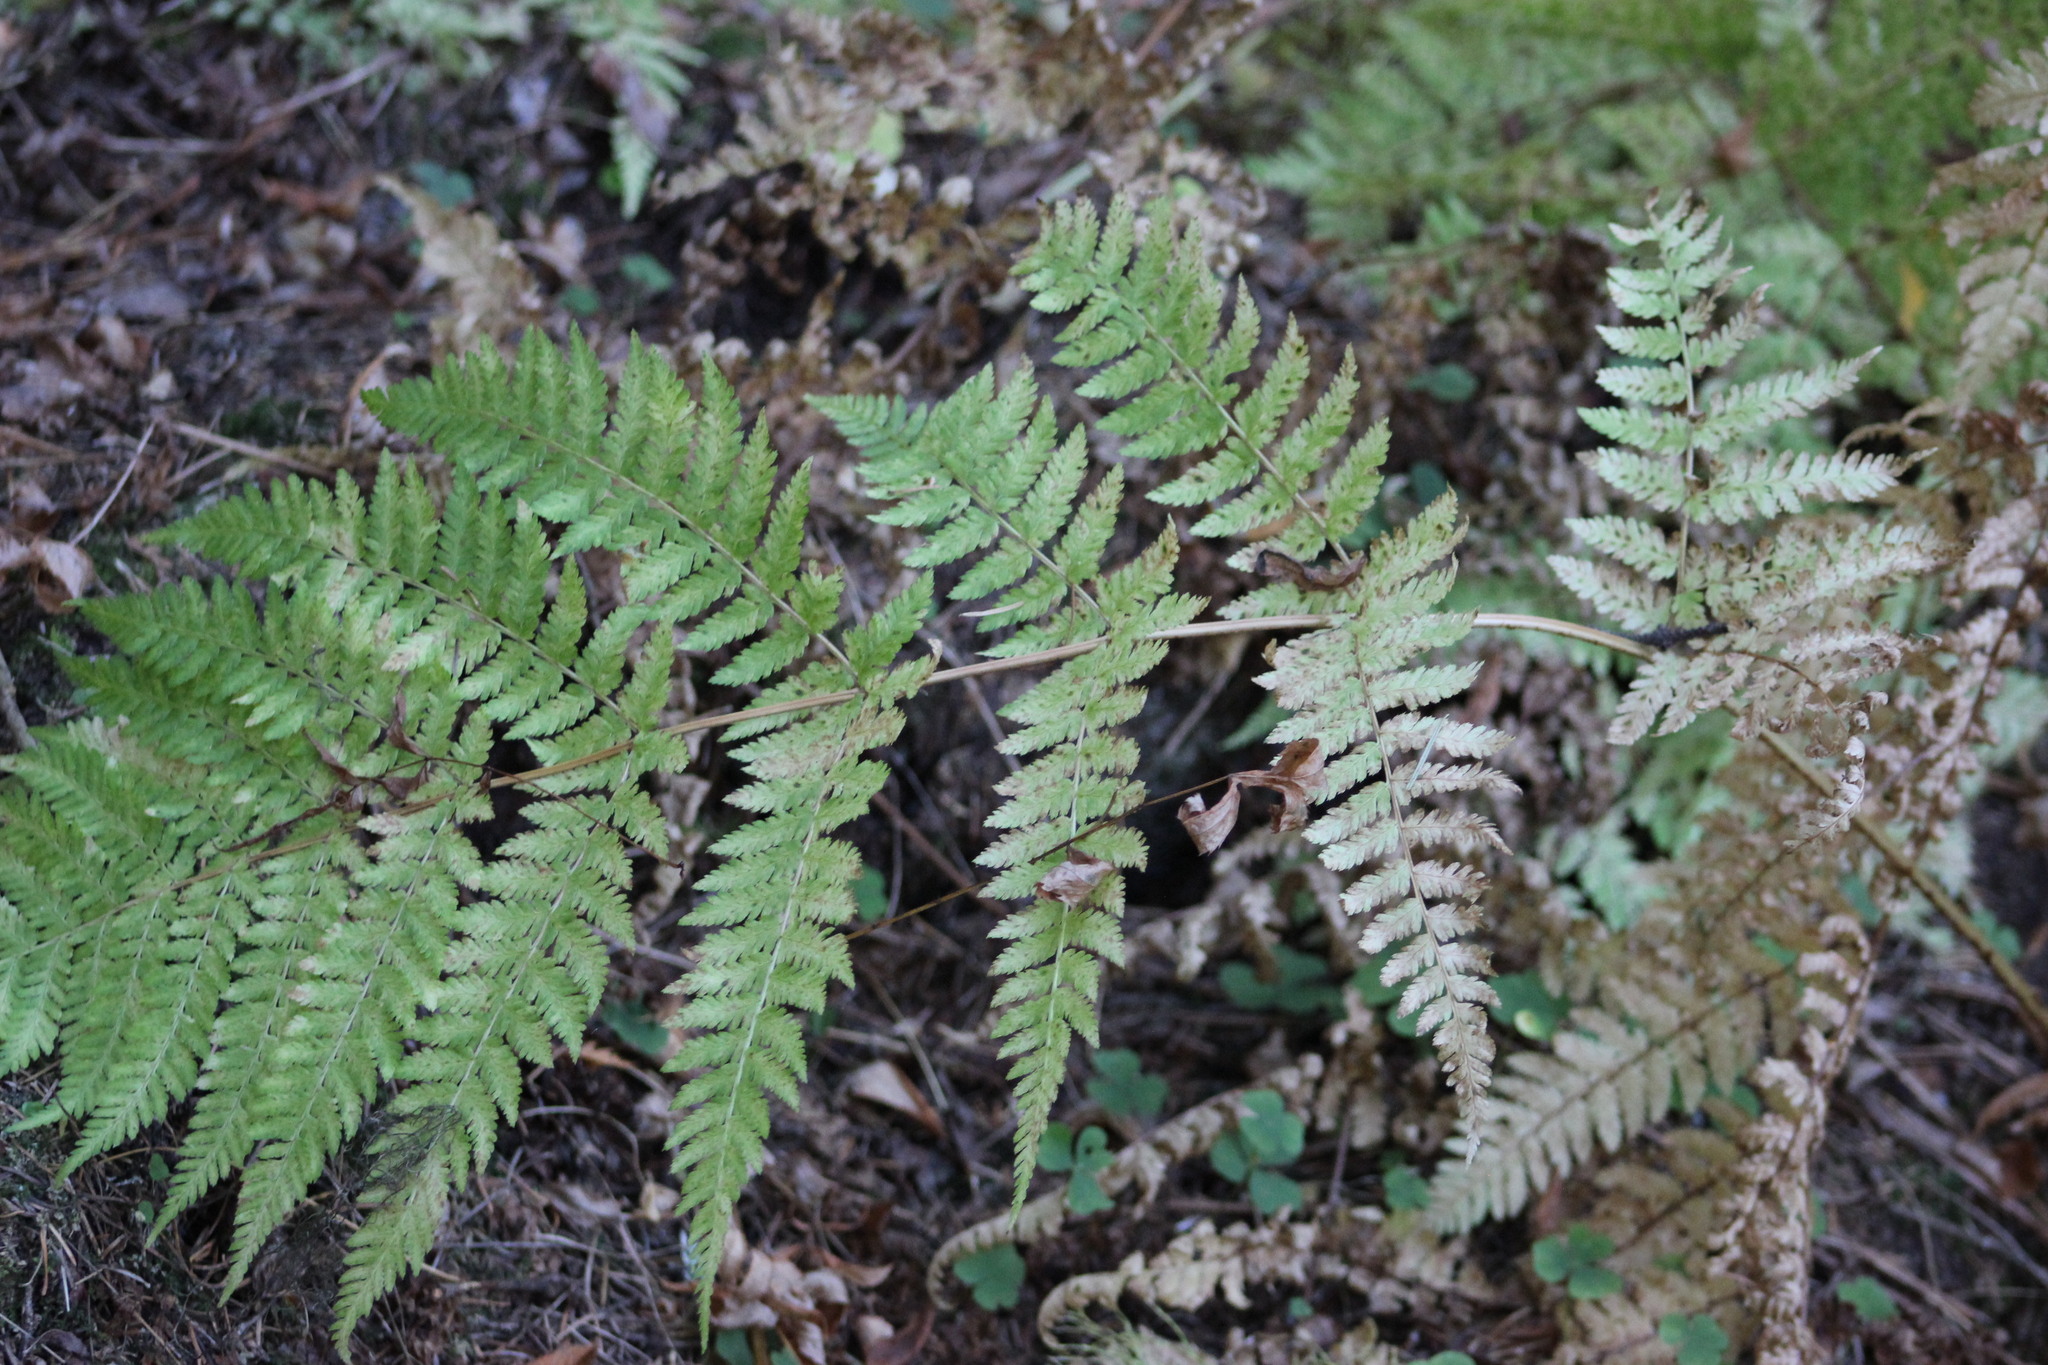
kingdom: Plantae
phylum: Tracheophyta
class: Polypodiopsida
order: Polypodiales
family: Dryopteridaceae
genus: Dryopteris
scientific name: Dryopteris expansa
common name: Northern buckler fern
